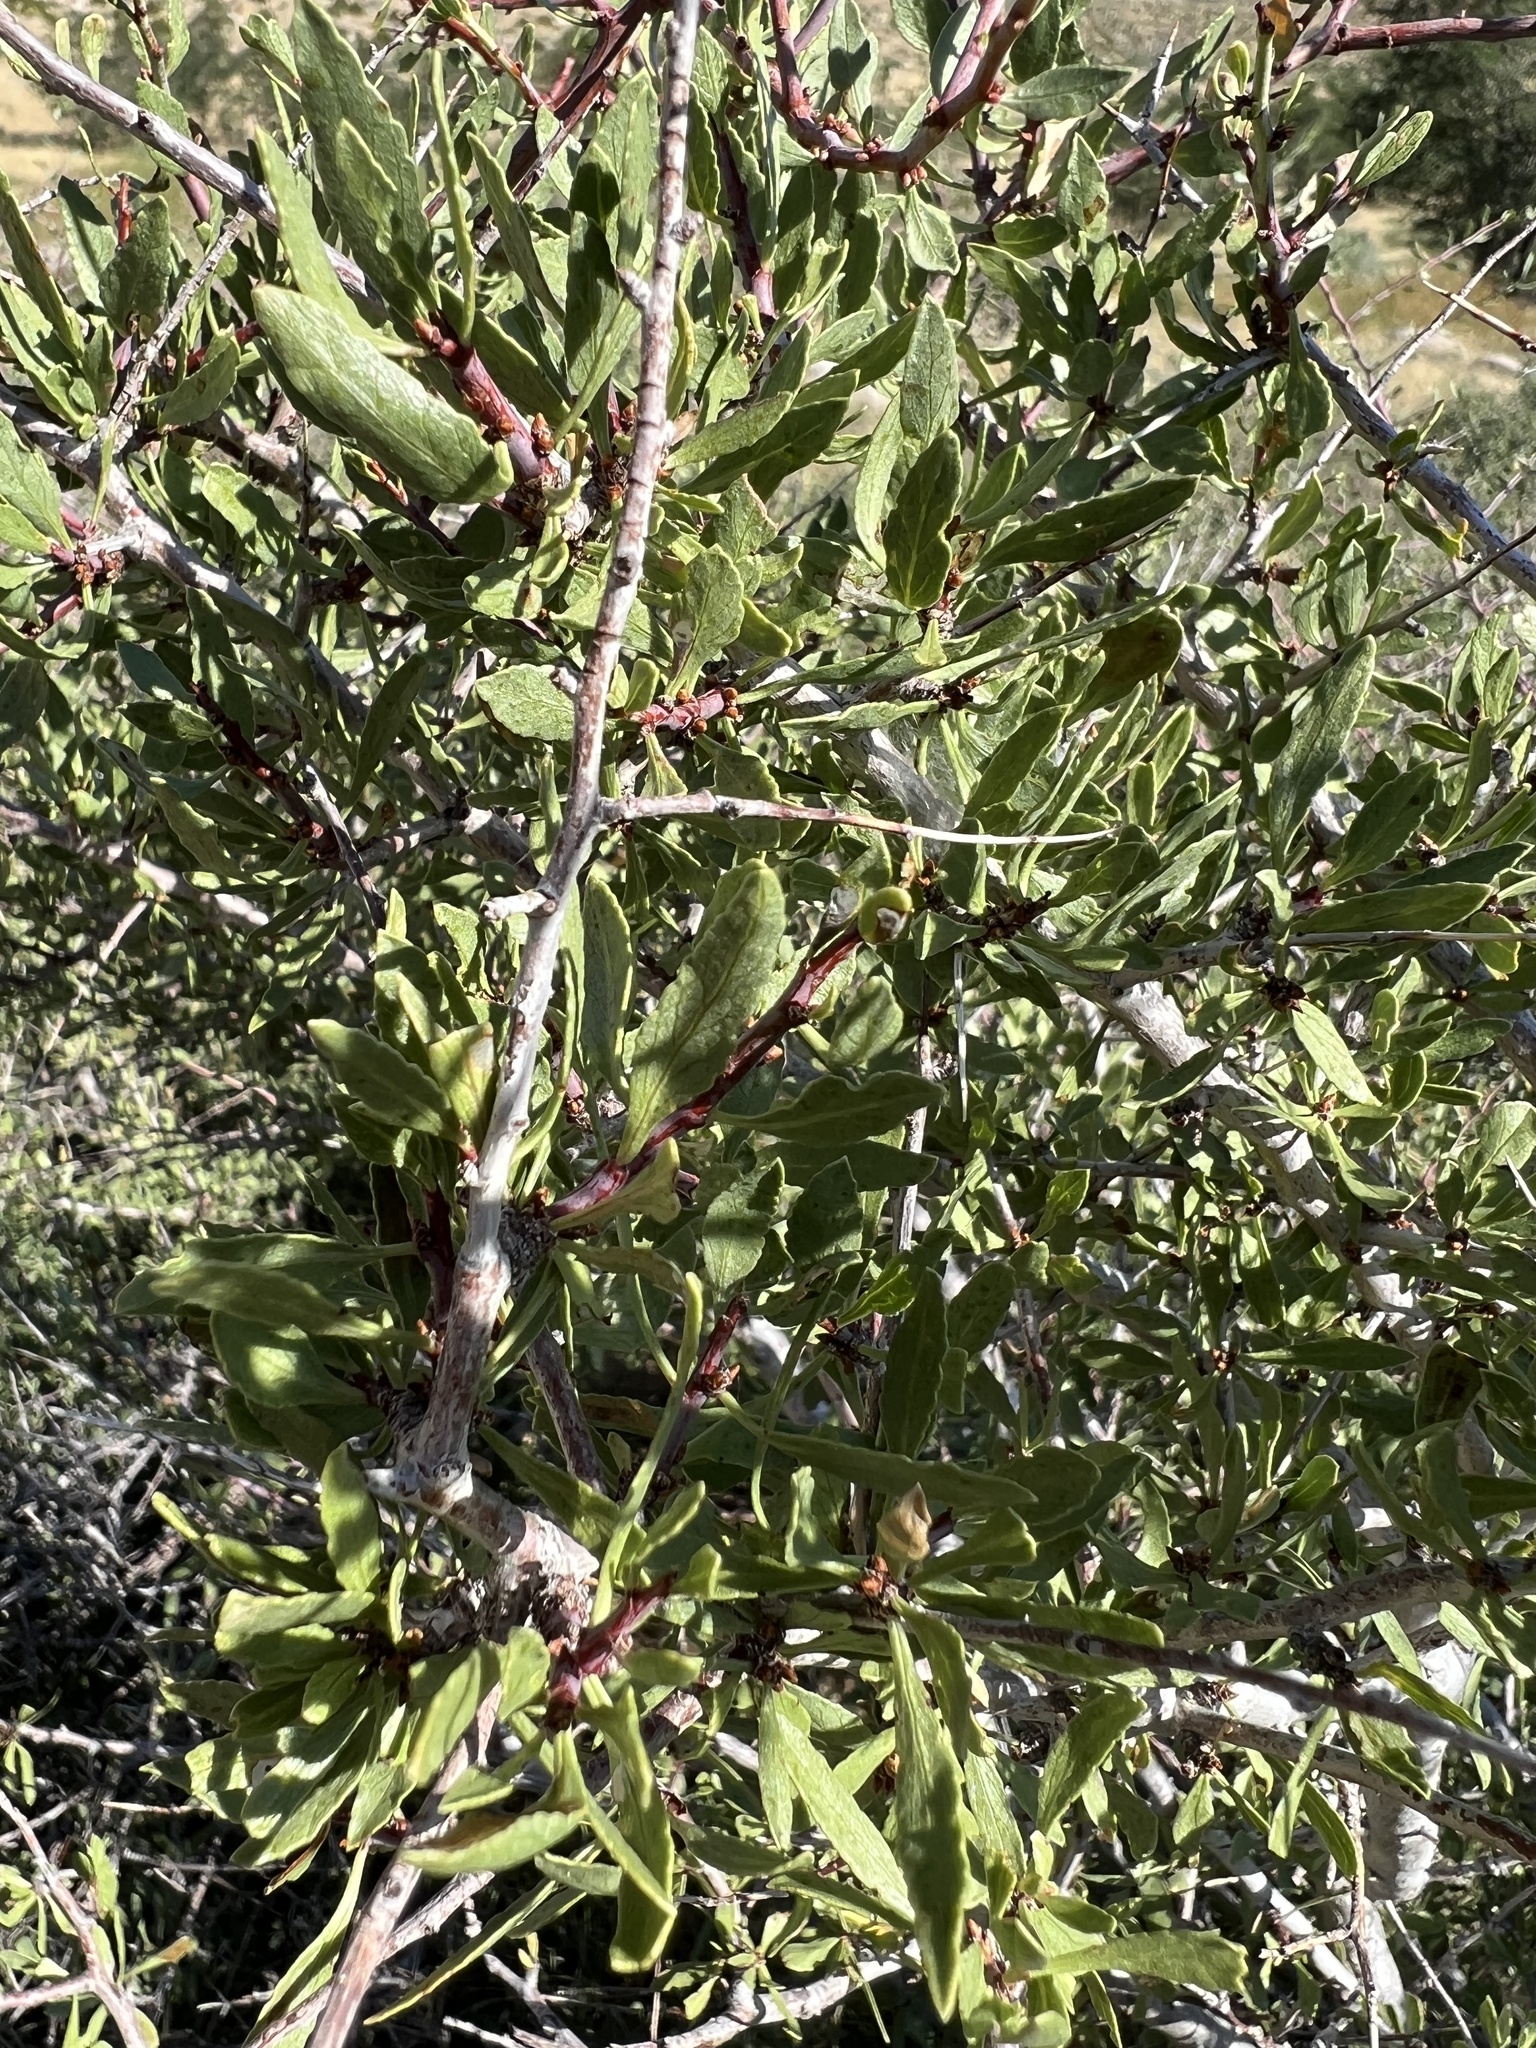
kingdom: Plantae
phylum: Tracheophyta
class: Magnoliopsida
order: Rosales
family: Rosaceae
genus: Prunus
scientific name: Prunus andersonii
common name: Desert peach
